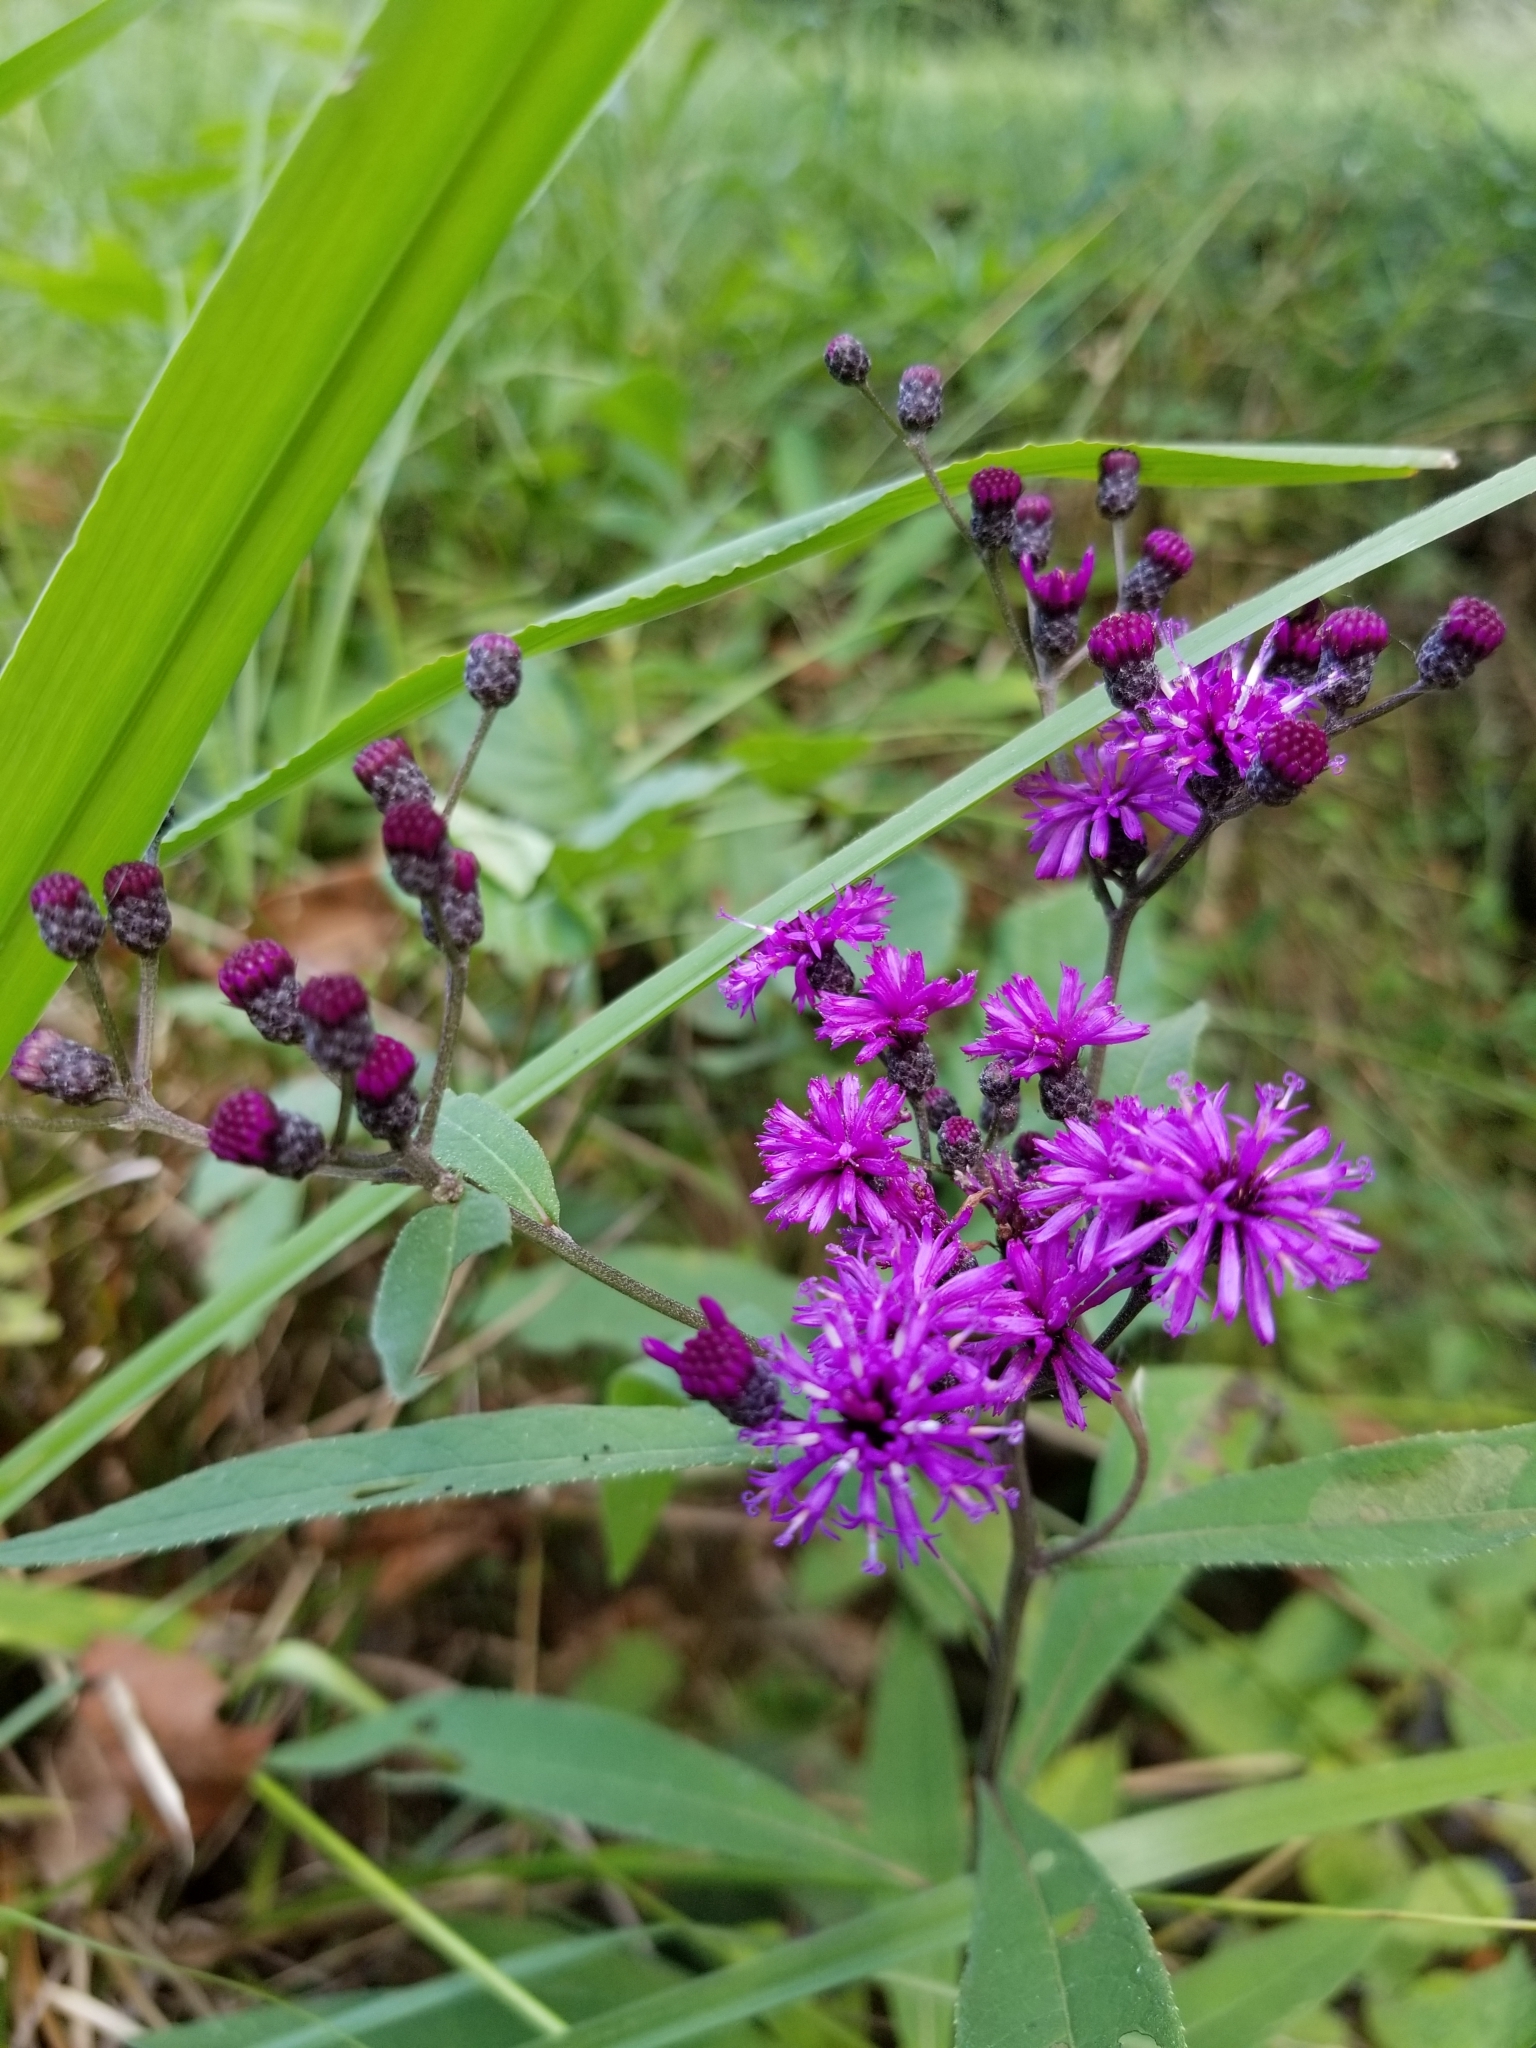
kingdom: Plantae
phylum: Tracheophyta
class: Magnoliopsida
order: Asterales
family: Asteraceae
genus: Vernonia
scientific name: Vernonia gigantea
